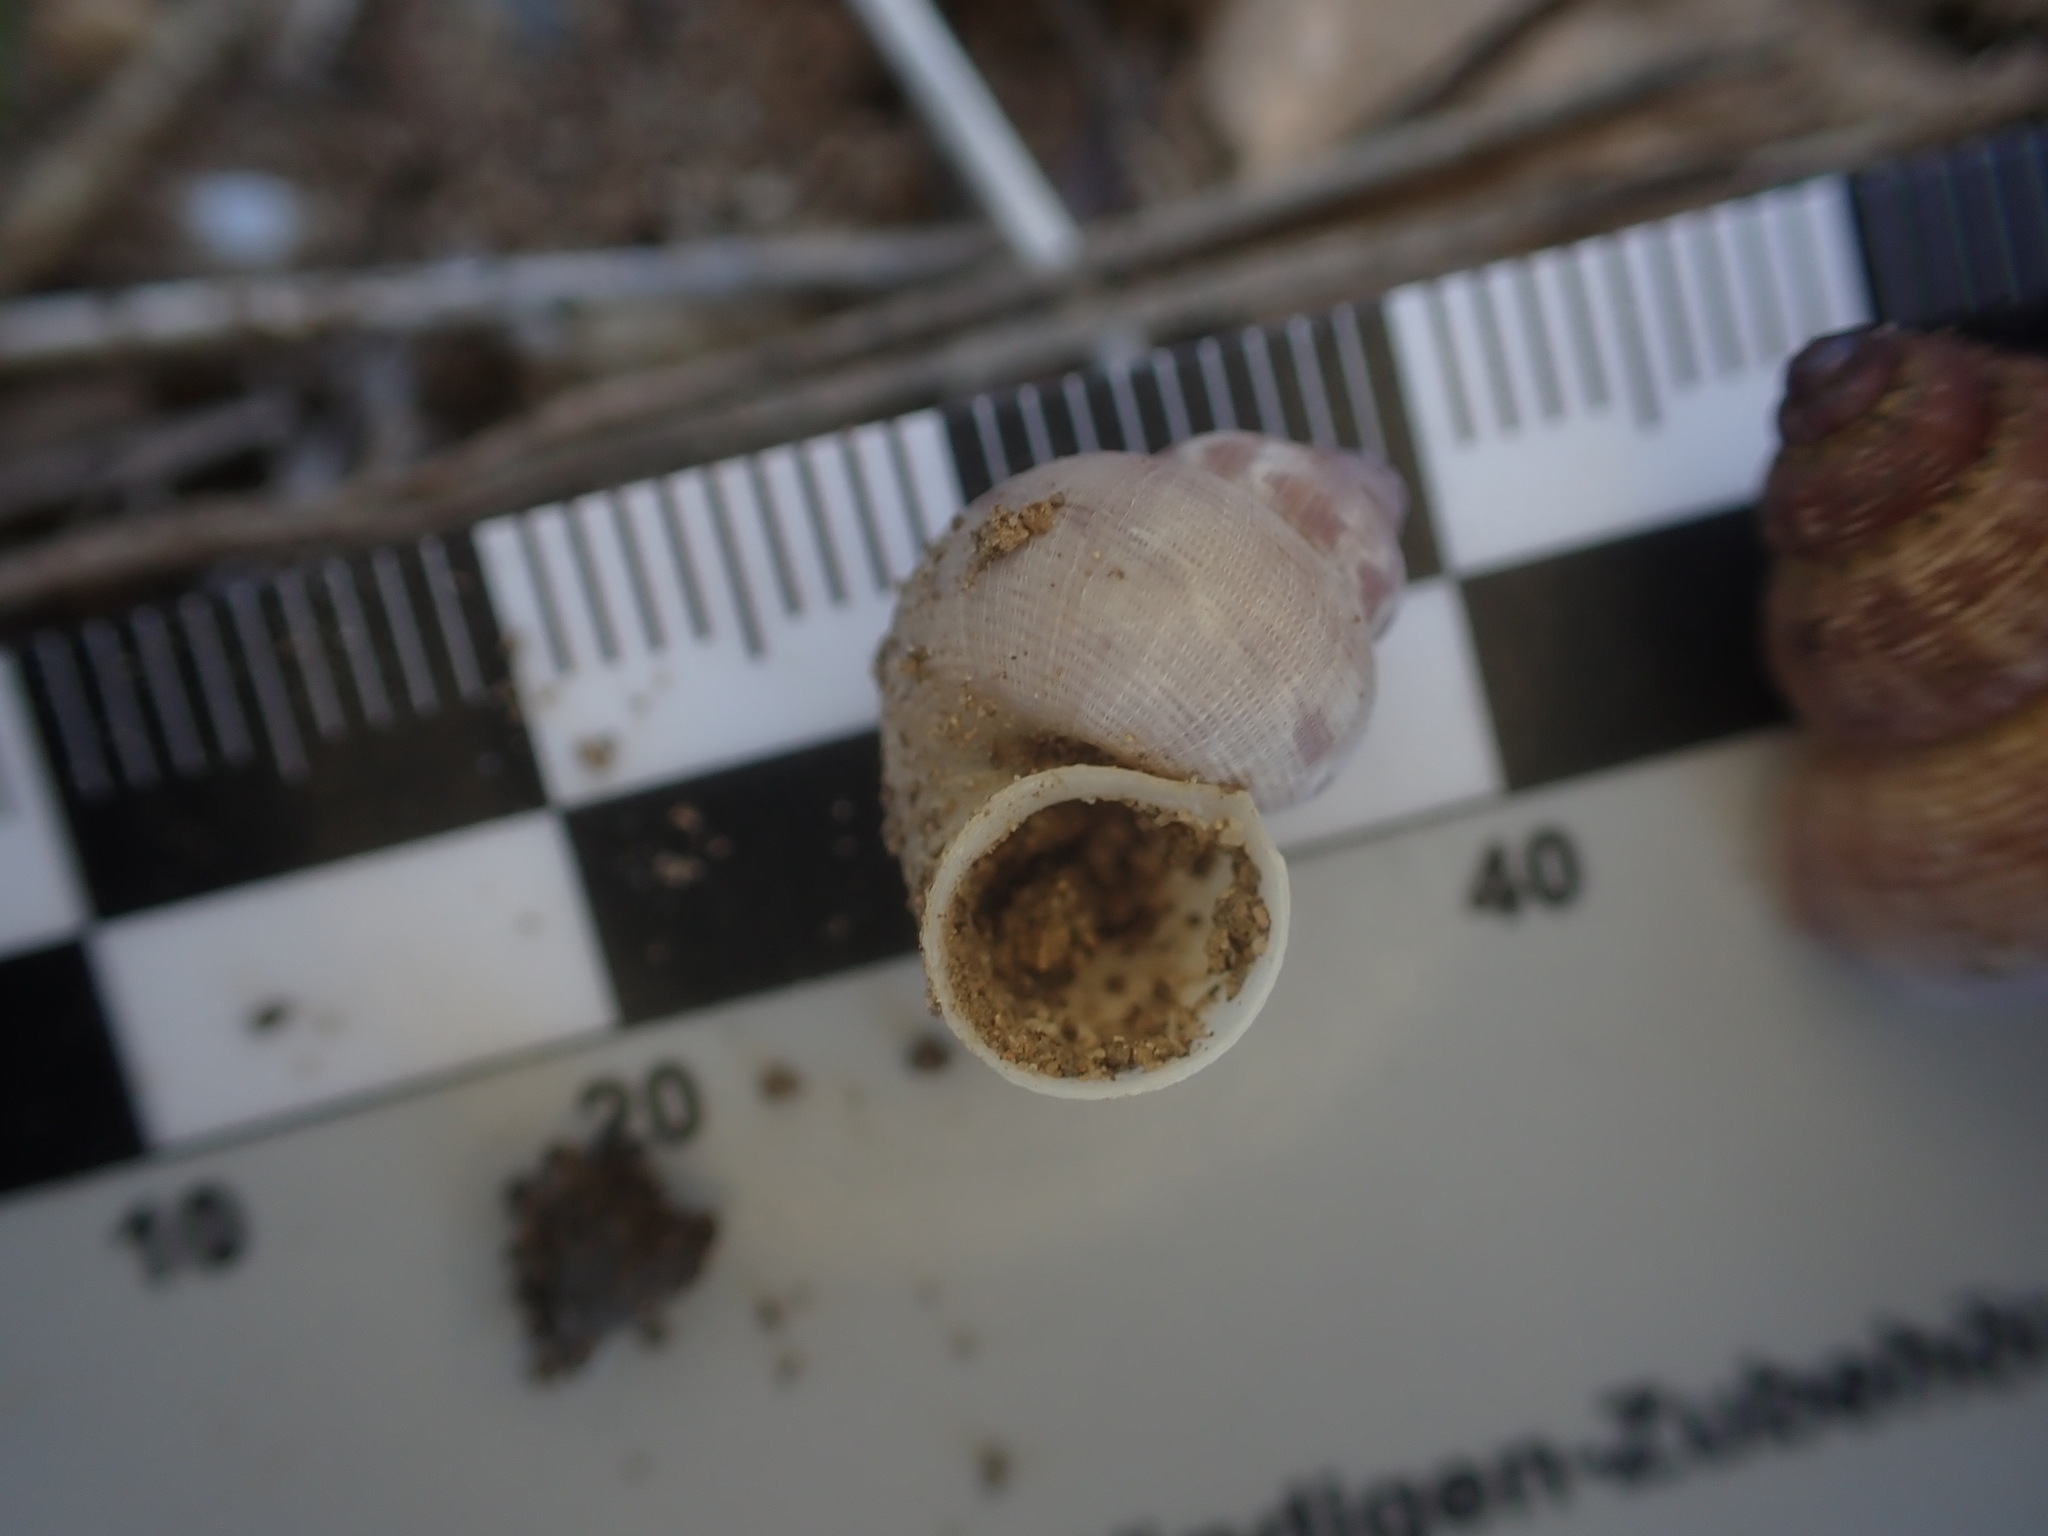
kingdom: Animalia
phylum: Mollusca
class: Gastropoda
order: Littorinimorpha
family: Pomatiidae
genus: Pomatias
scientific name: Pomatias elegans
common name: Red-mouthed snail
